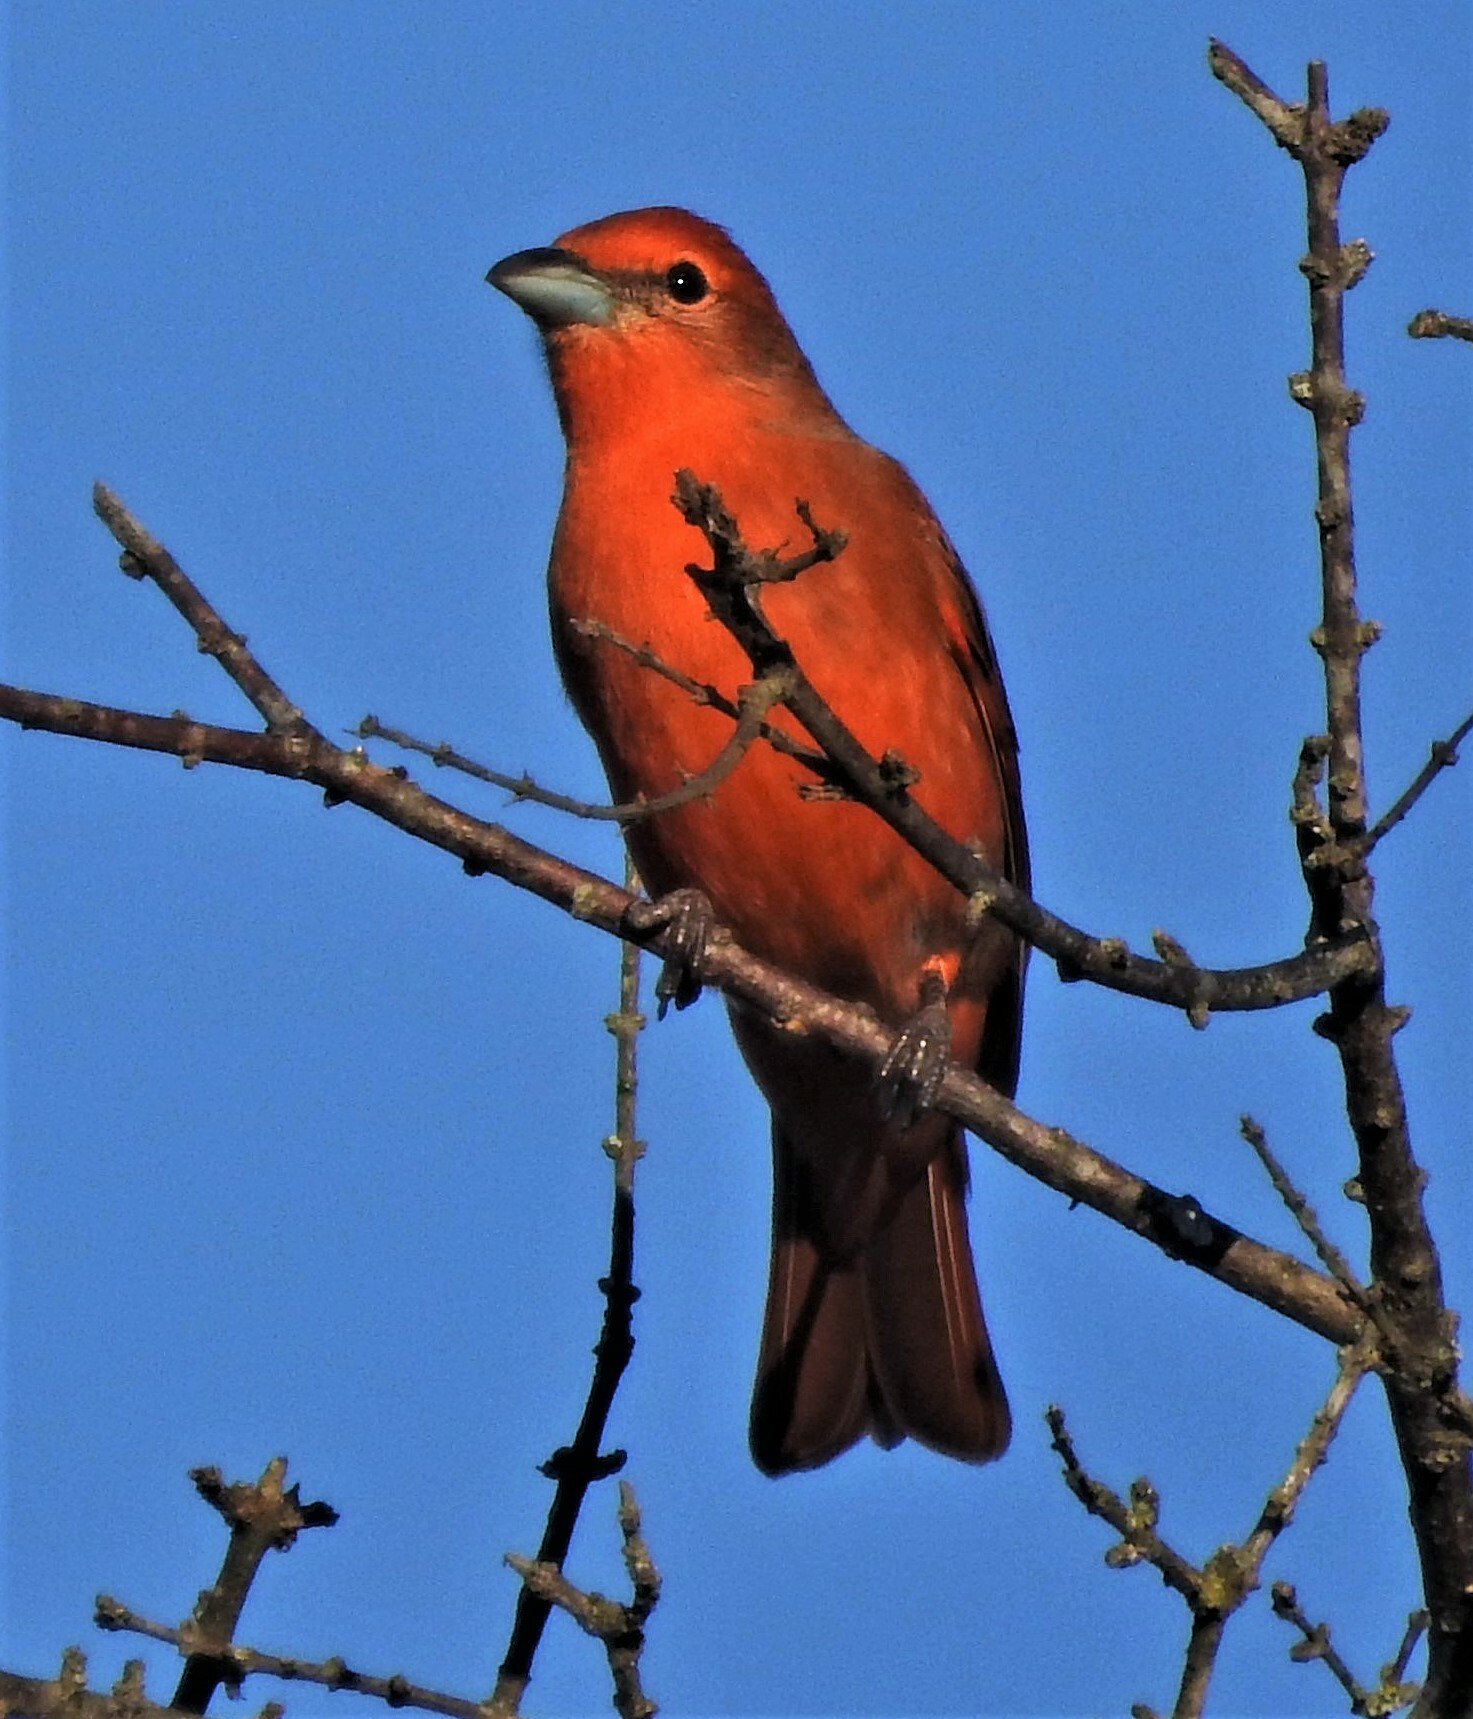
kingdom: Animalia
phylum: Chordata
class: Aves
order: Passeriformes
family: Cardinalidae
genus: Piranga
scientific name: Piranga flava
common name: Red tanager
